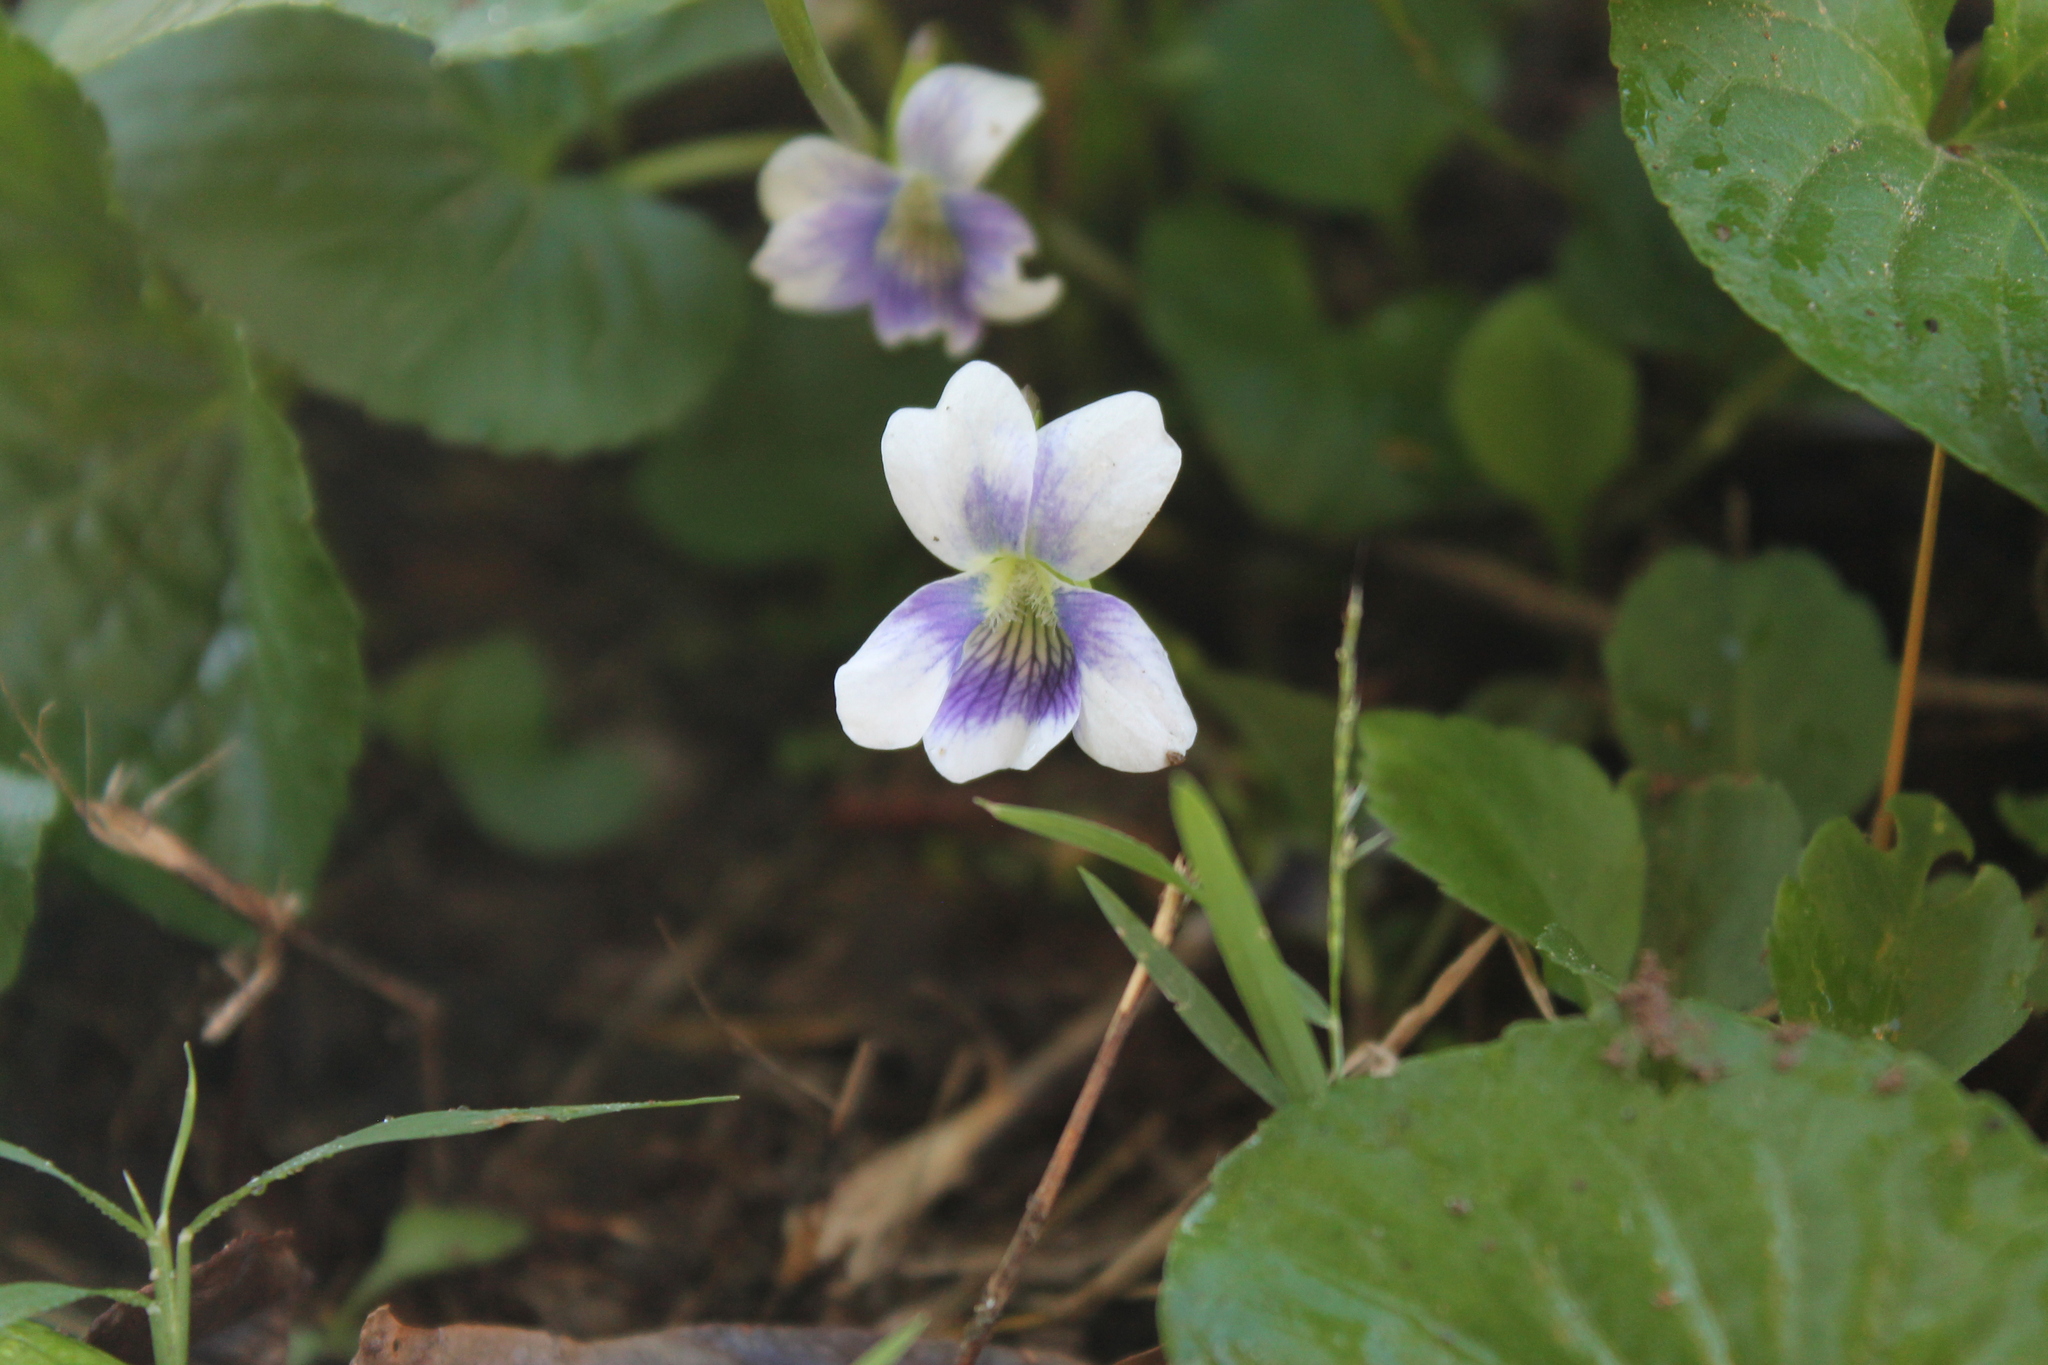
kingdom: Plantae
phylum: Tracheophyta
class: Magnoliopsida
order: Malpighiales
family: Violaceae
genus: Viola
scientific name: Viola sororia
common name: Dooryard violet
